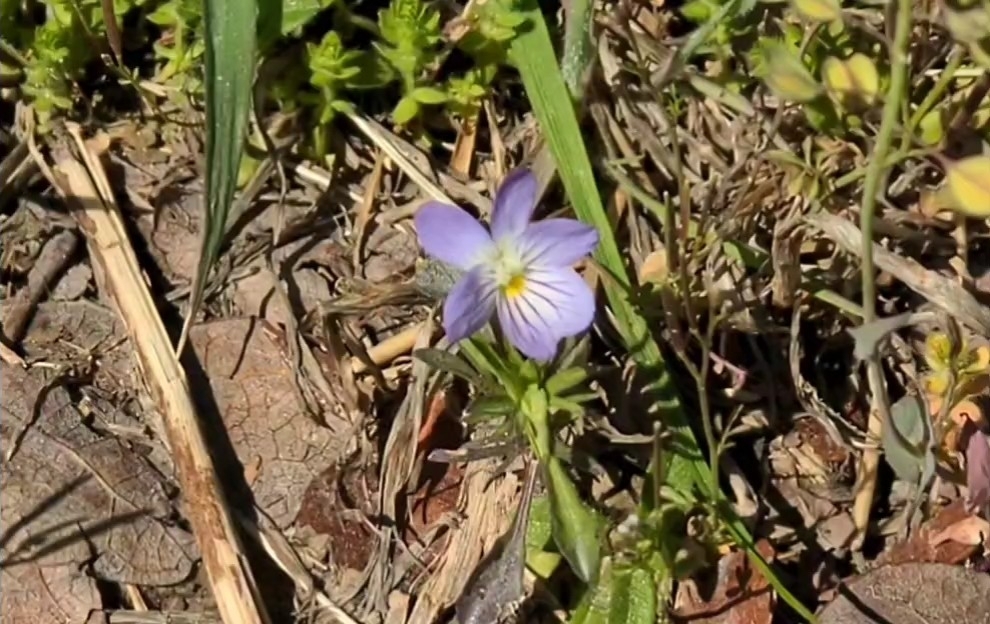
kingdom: Plantae
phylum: Tracheophyta
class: Magnoliopsida
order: Malpighiales
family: Violaceae
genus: Viola
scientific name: Viola rafinesquei
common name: American field pansy
